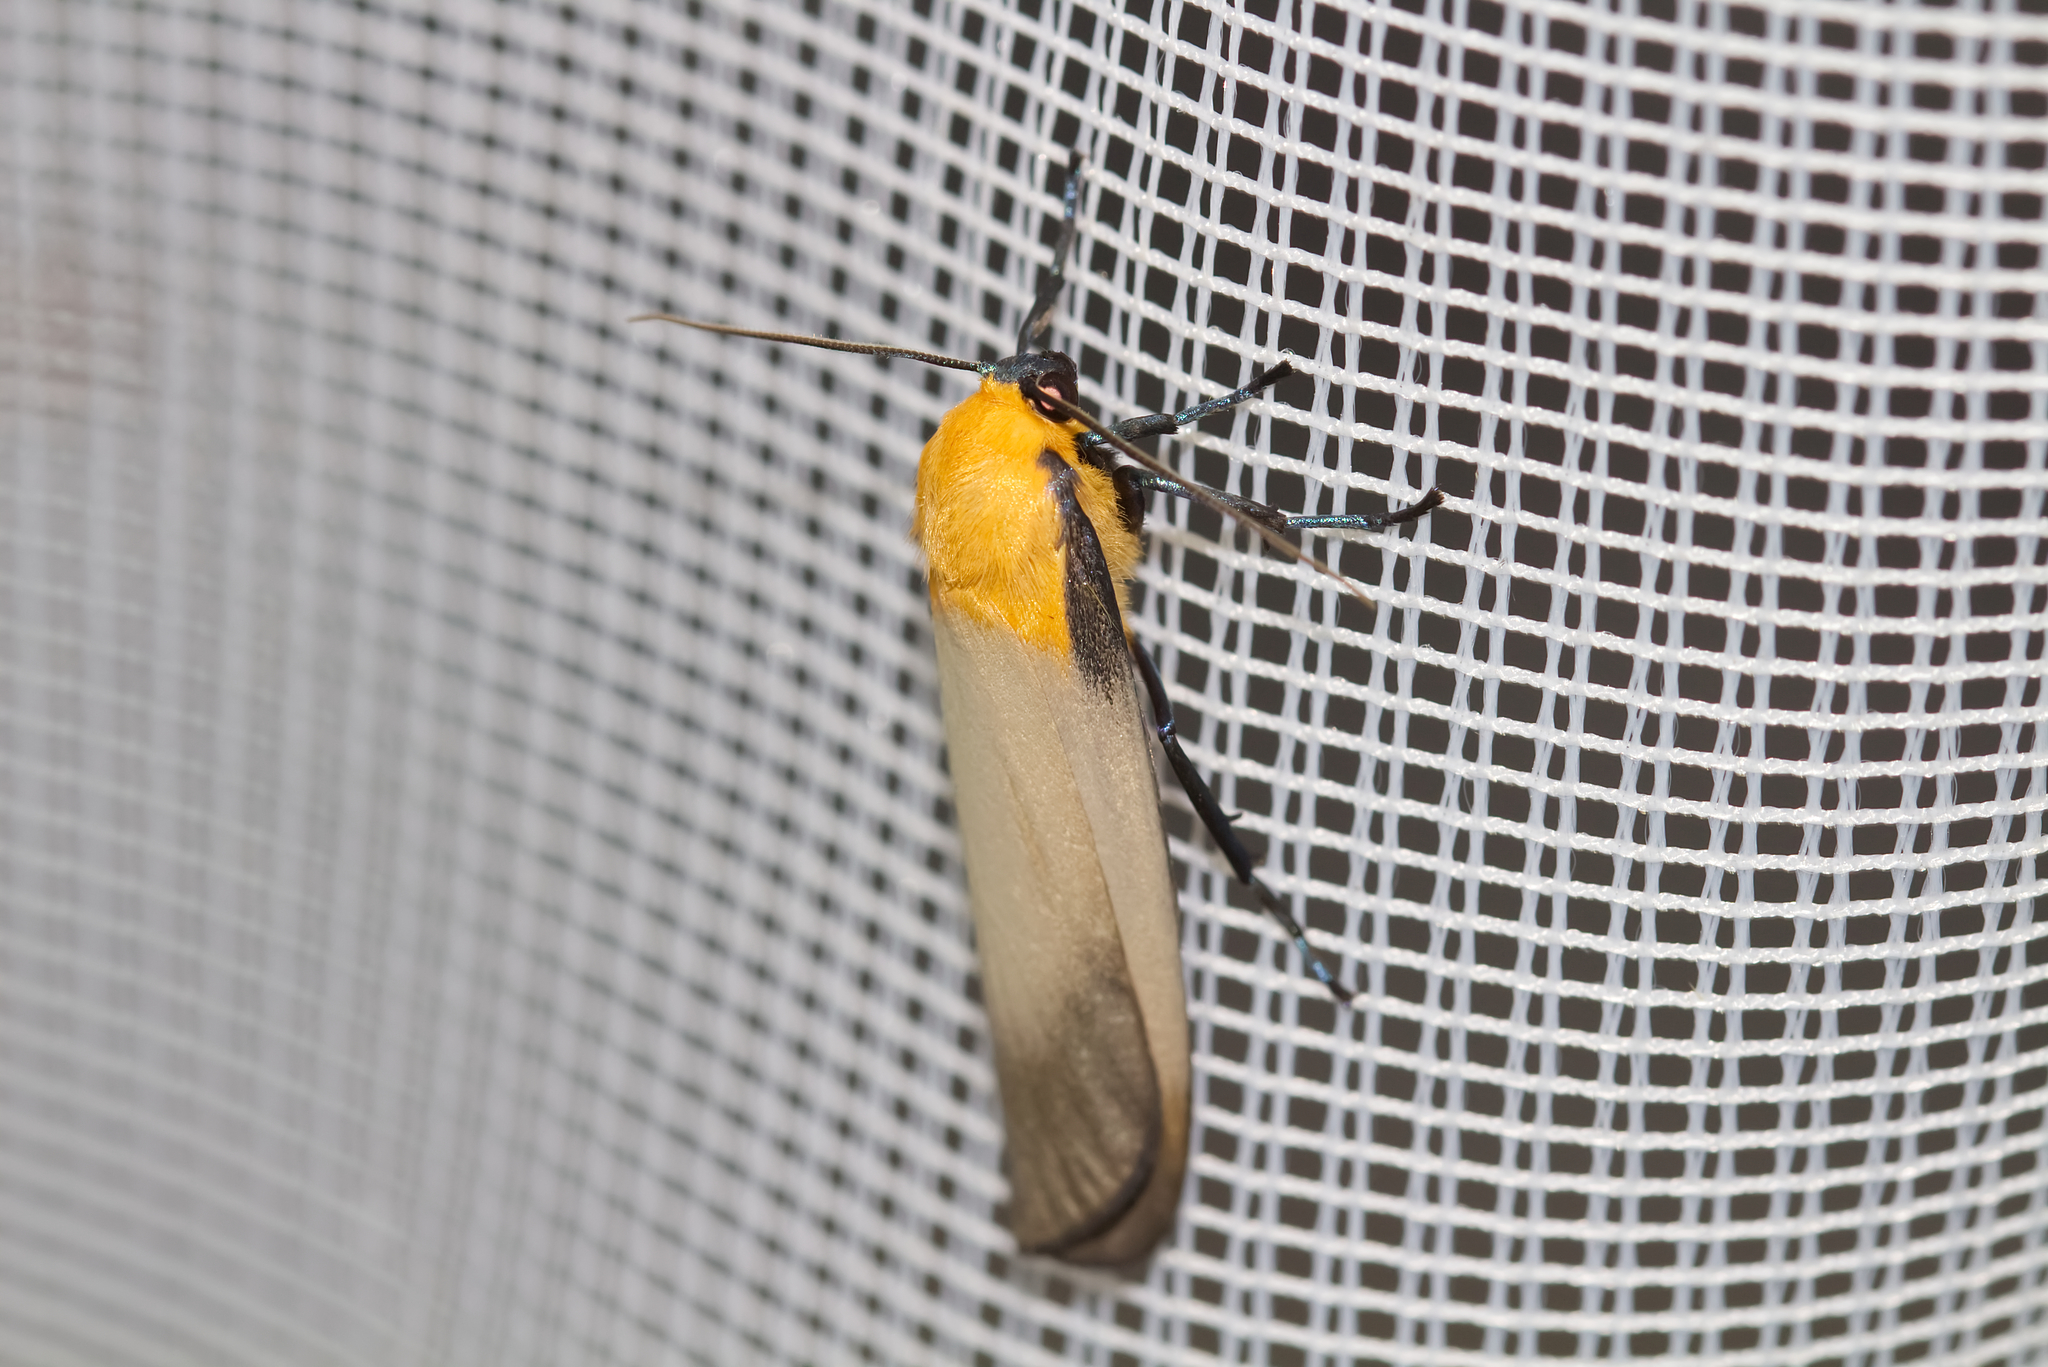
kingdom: Animalia
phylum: Arthropoda
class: Insecta
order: Lepidoptera
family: Erebidae
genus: Lithosia
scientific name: Lithosia quadra
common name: Four-spotted footman
